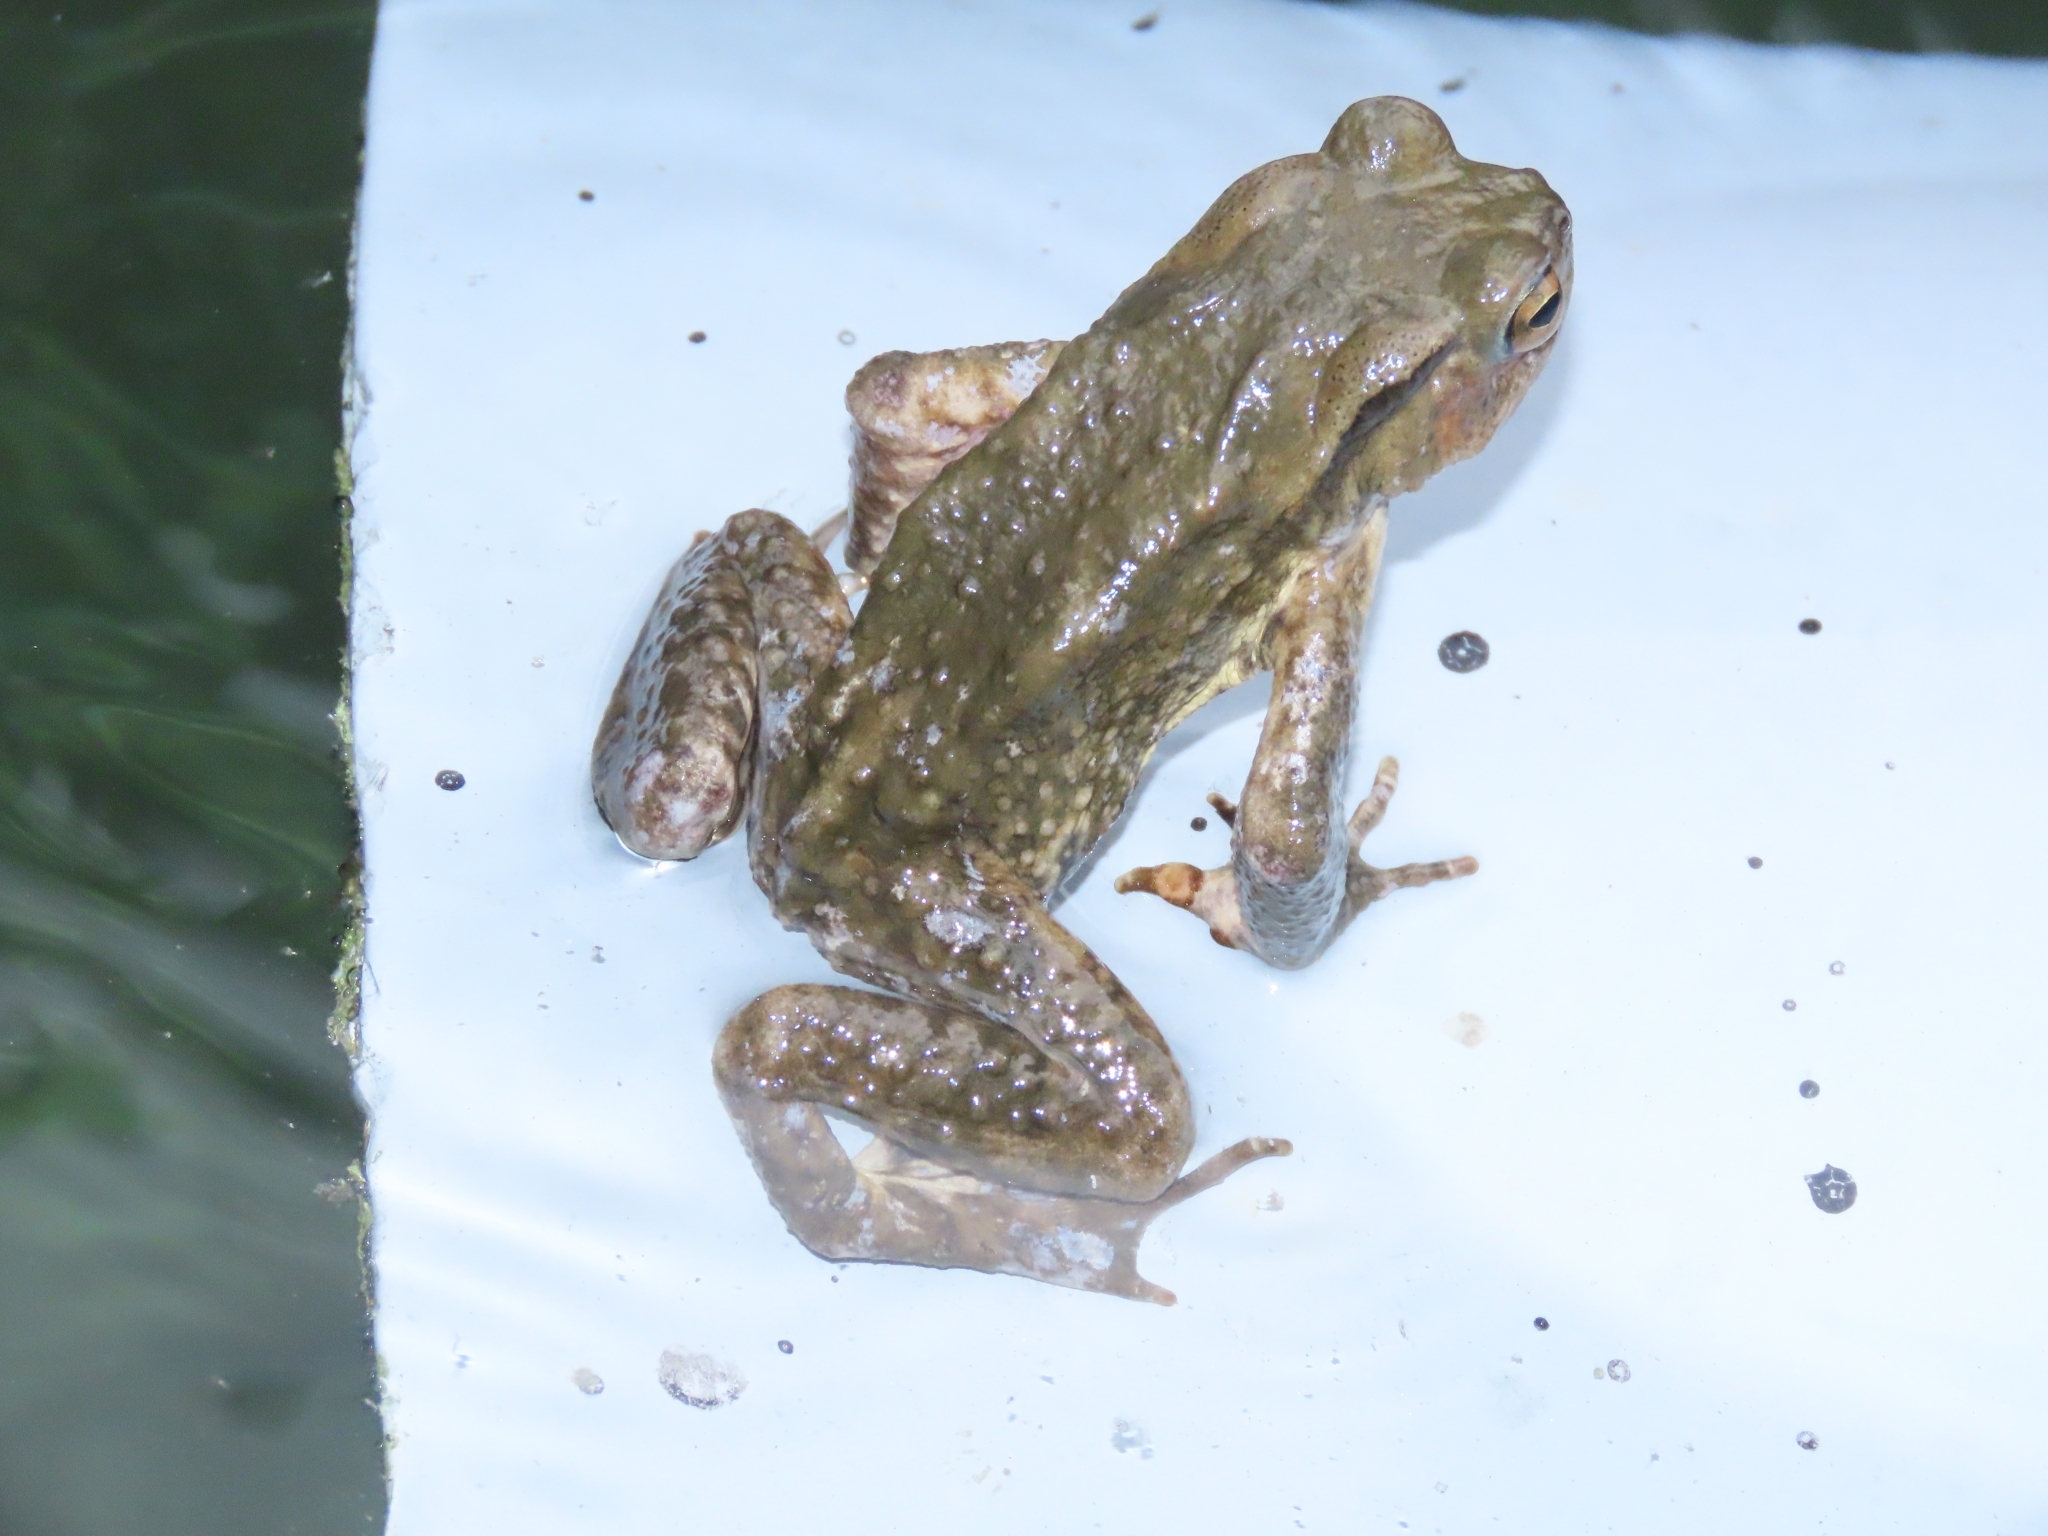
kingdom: Animalia
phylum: Chordata
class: Amphibia
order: Anura
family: Bufonidae
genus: Bufo
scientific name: Bufo bankorensis
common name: Bankor toad
